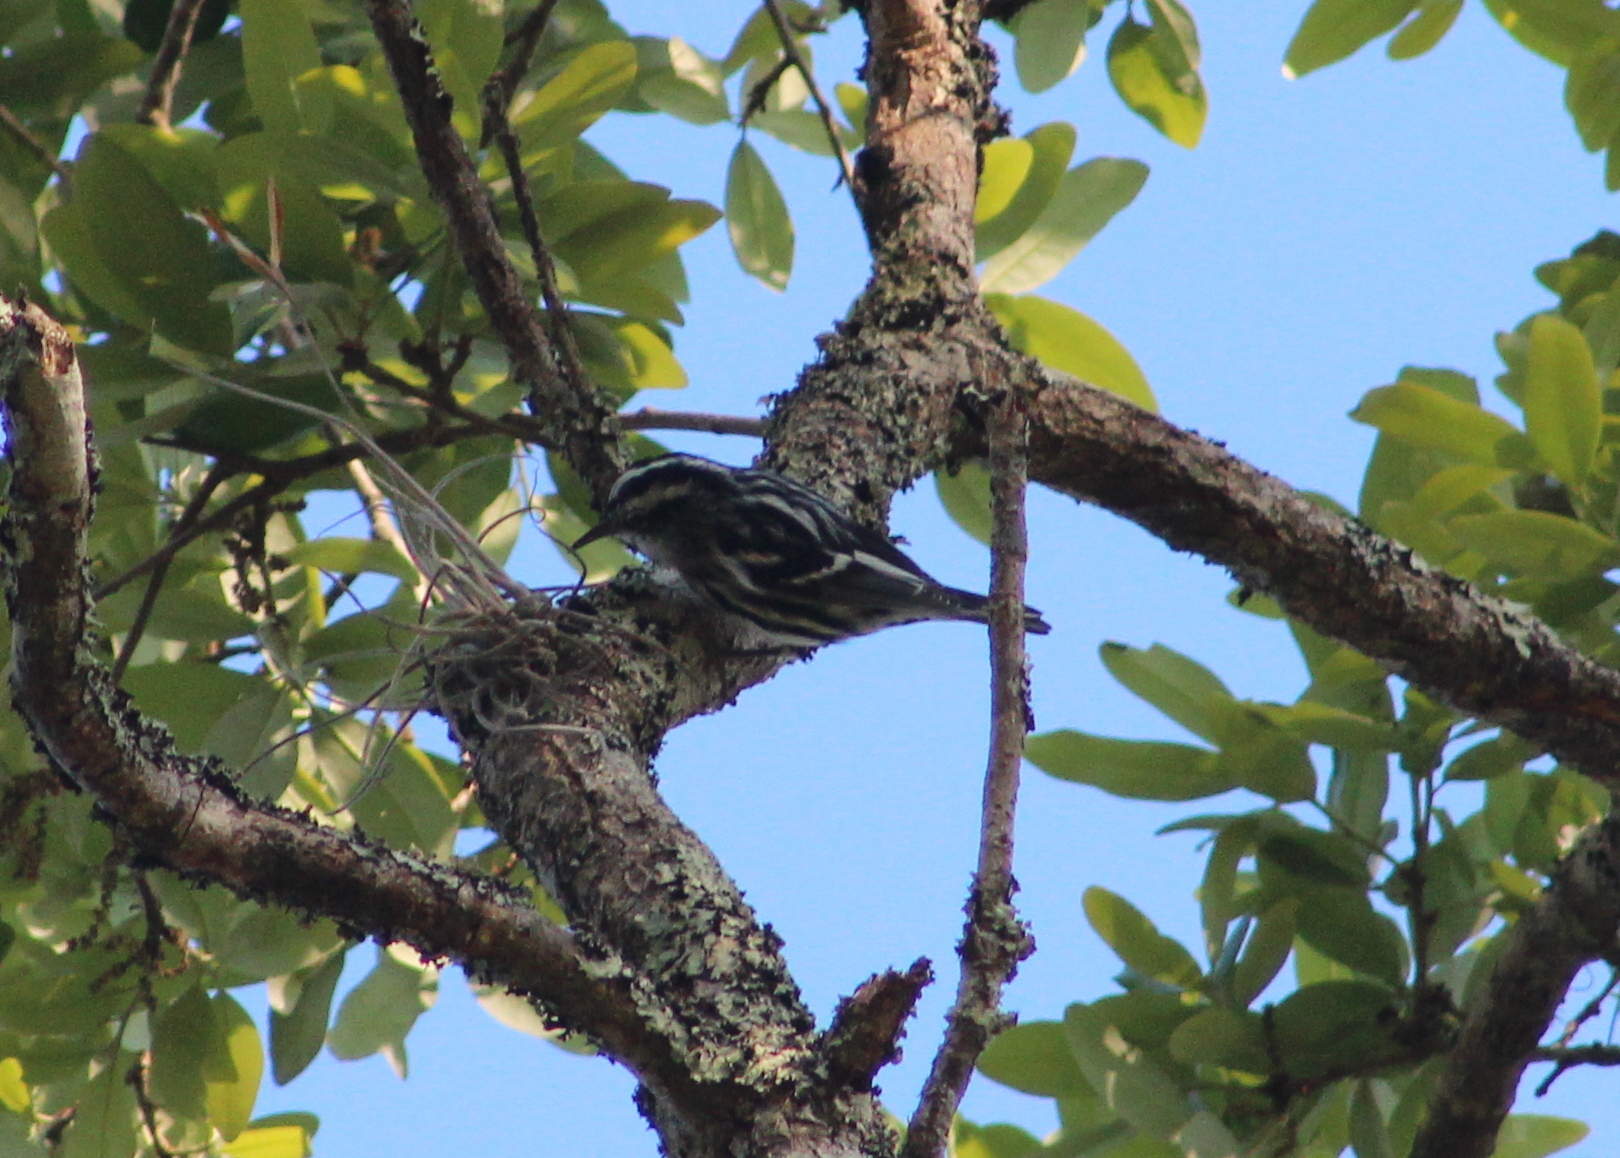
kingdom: Animalia
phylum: Chordata
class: Aves
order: Passeriformes
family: Parulidae
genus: Mniotilta
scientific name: Mniotilta varia
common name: Black-and-white warbler
